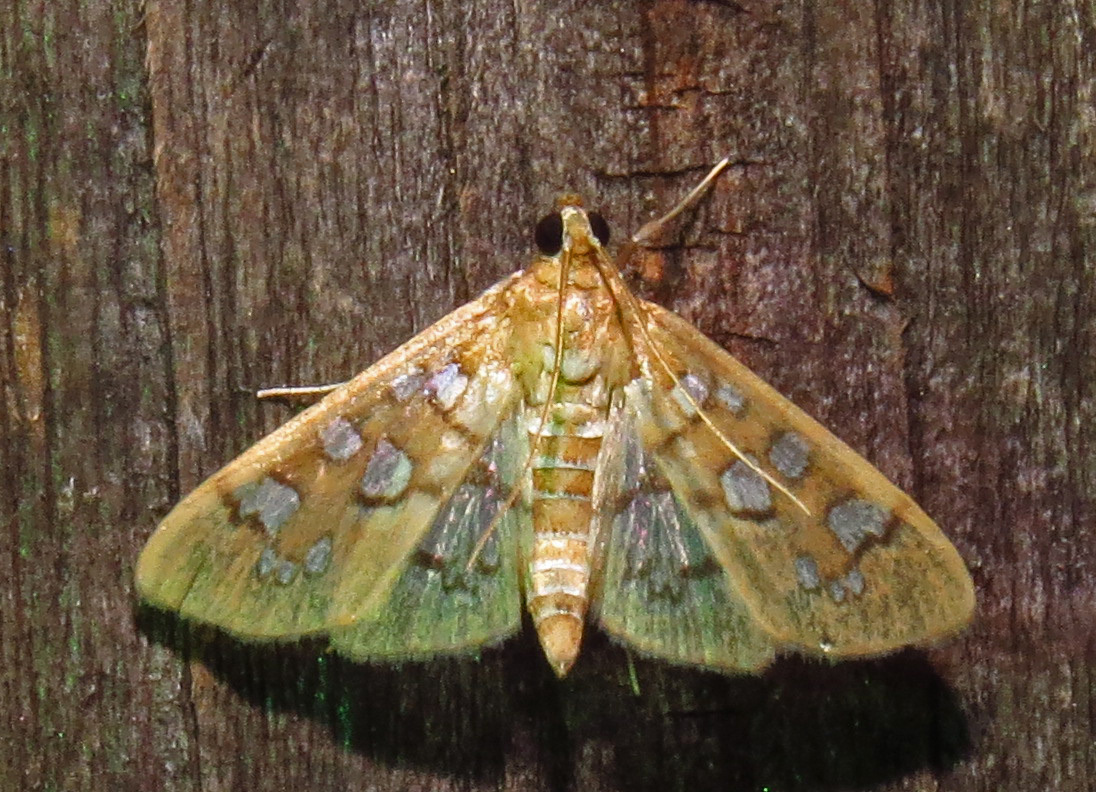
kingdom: Animalia
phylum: Arthropoda
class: Insecta
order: Lepidoptera
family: Crambidae
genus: Samea
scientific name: Samea baccatalis
